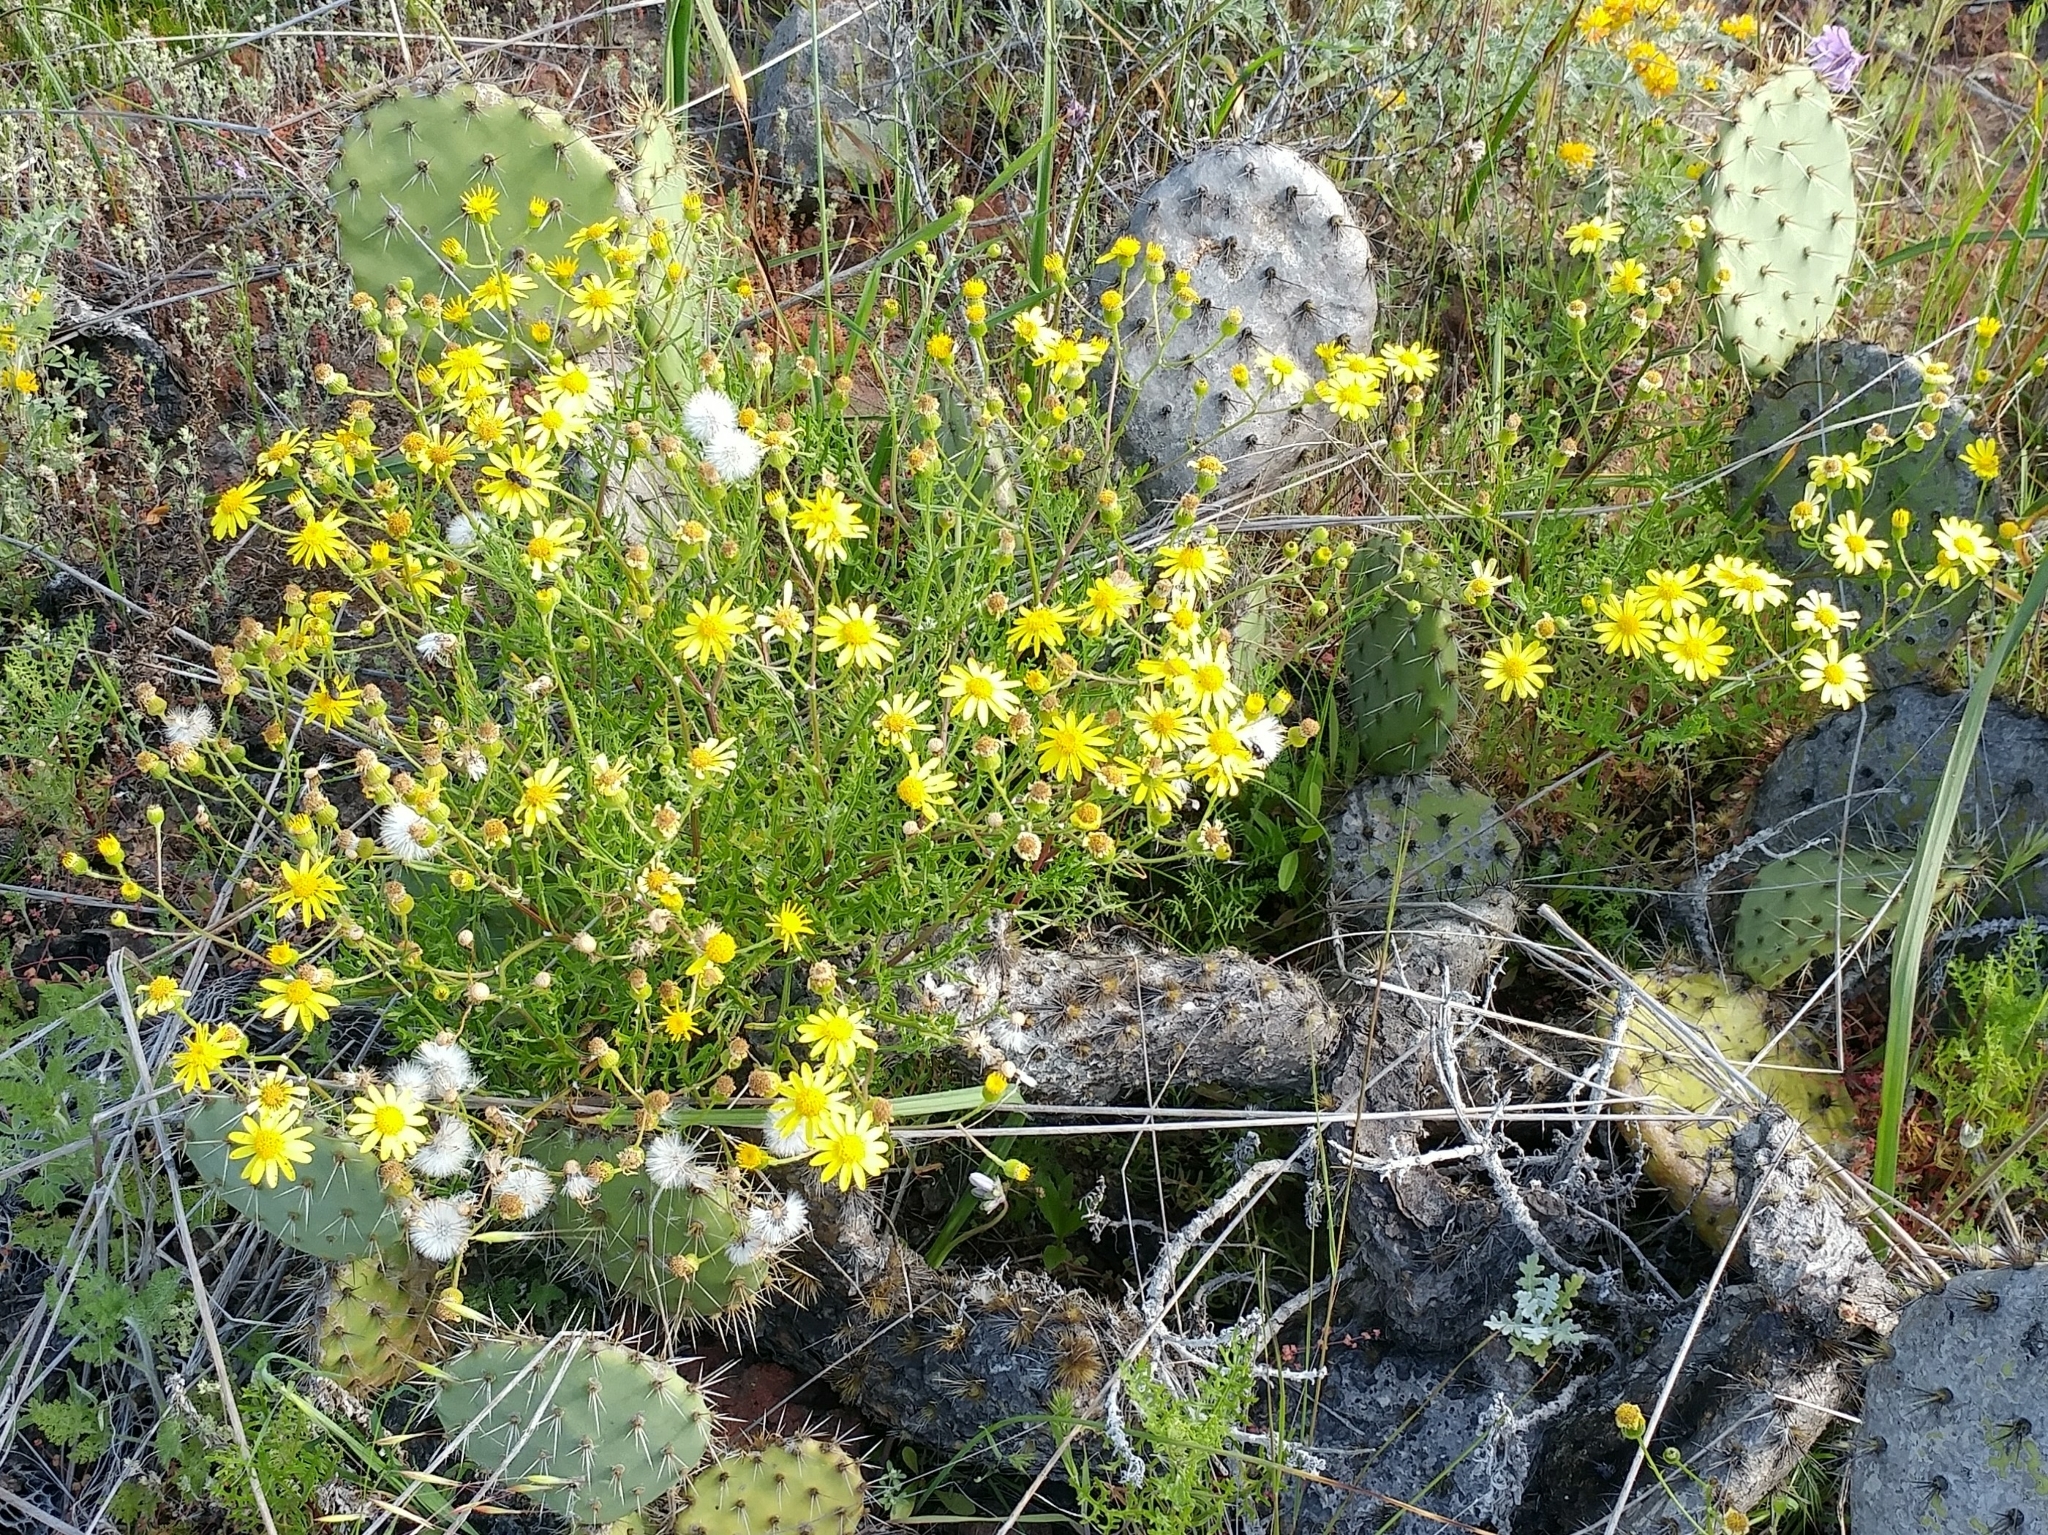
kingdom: Plantae
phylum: Tracheophyta
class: Magnoliopsida
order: Asterales
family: Asteraceae
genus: Senecio
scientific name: Senecio lyonii
